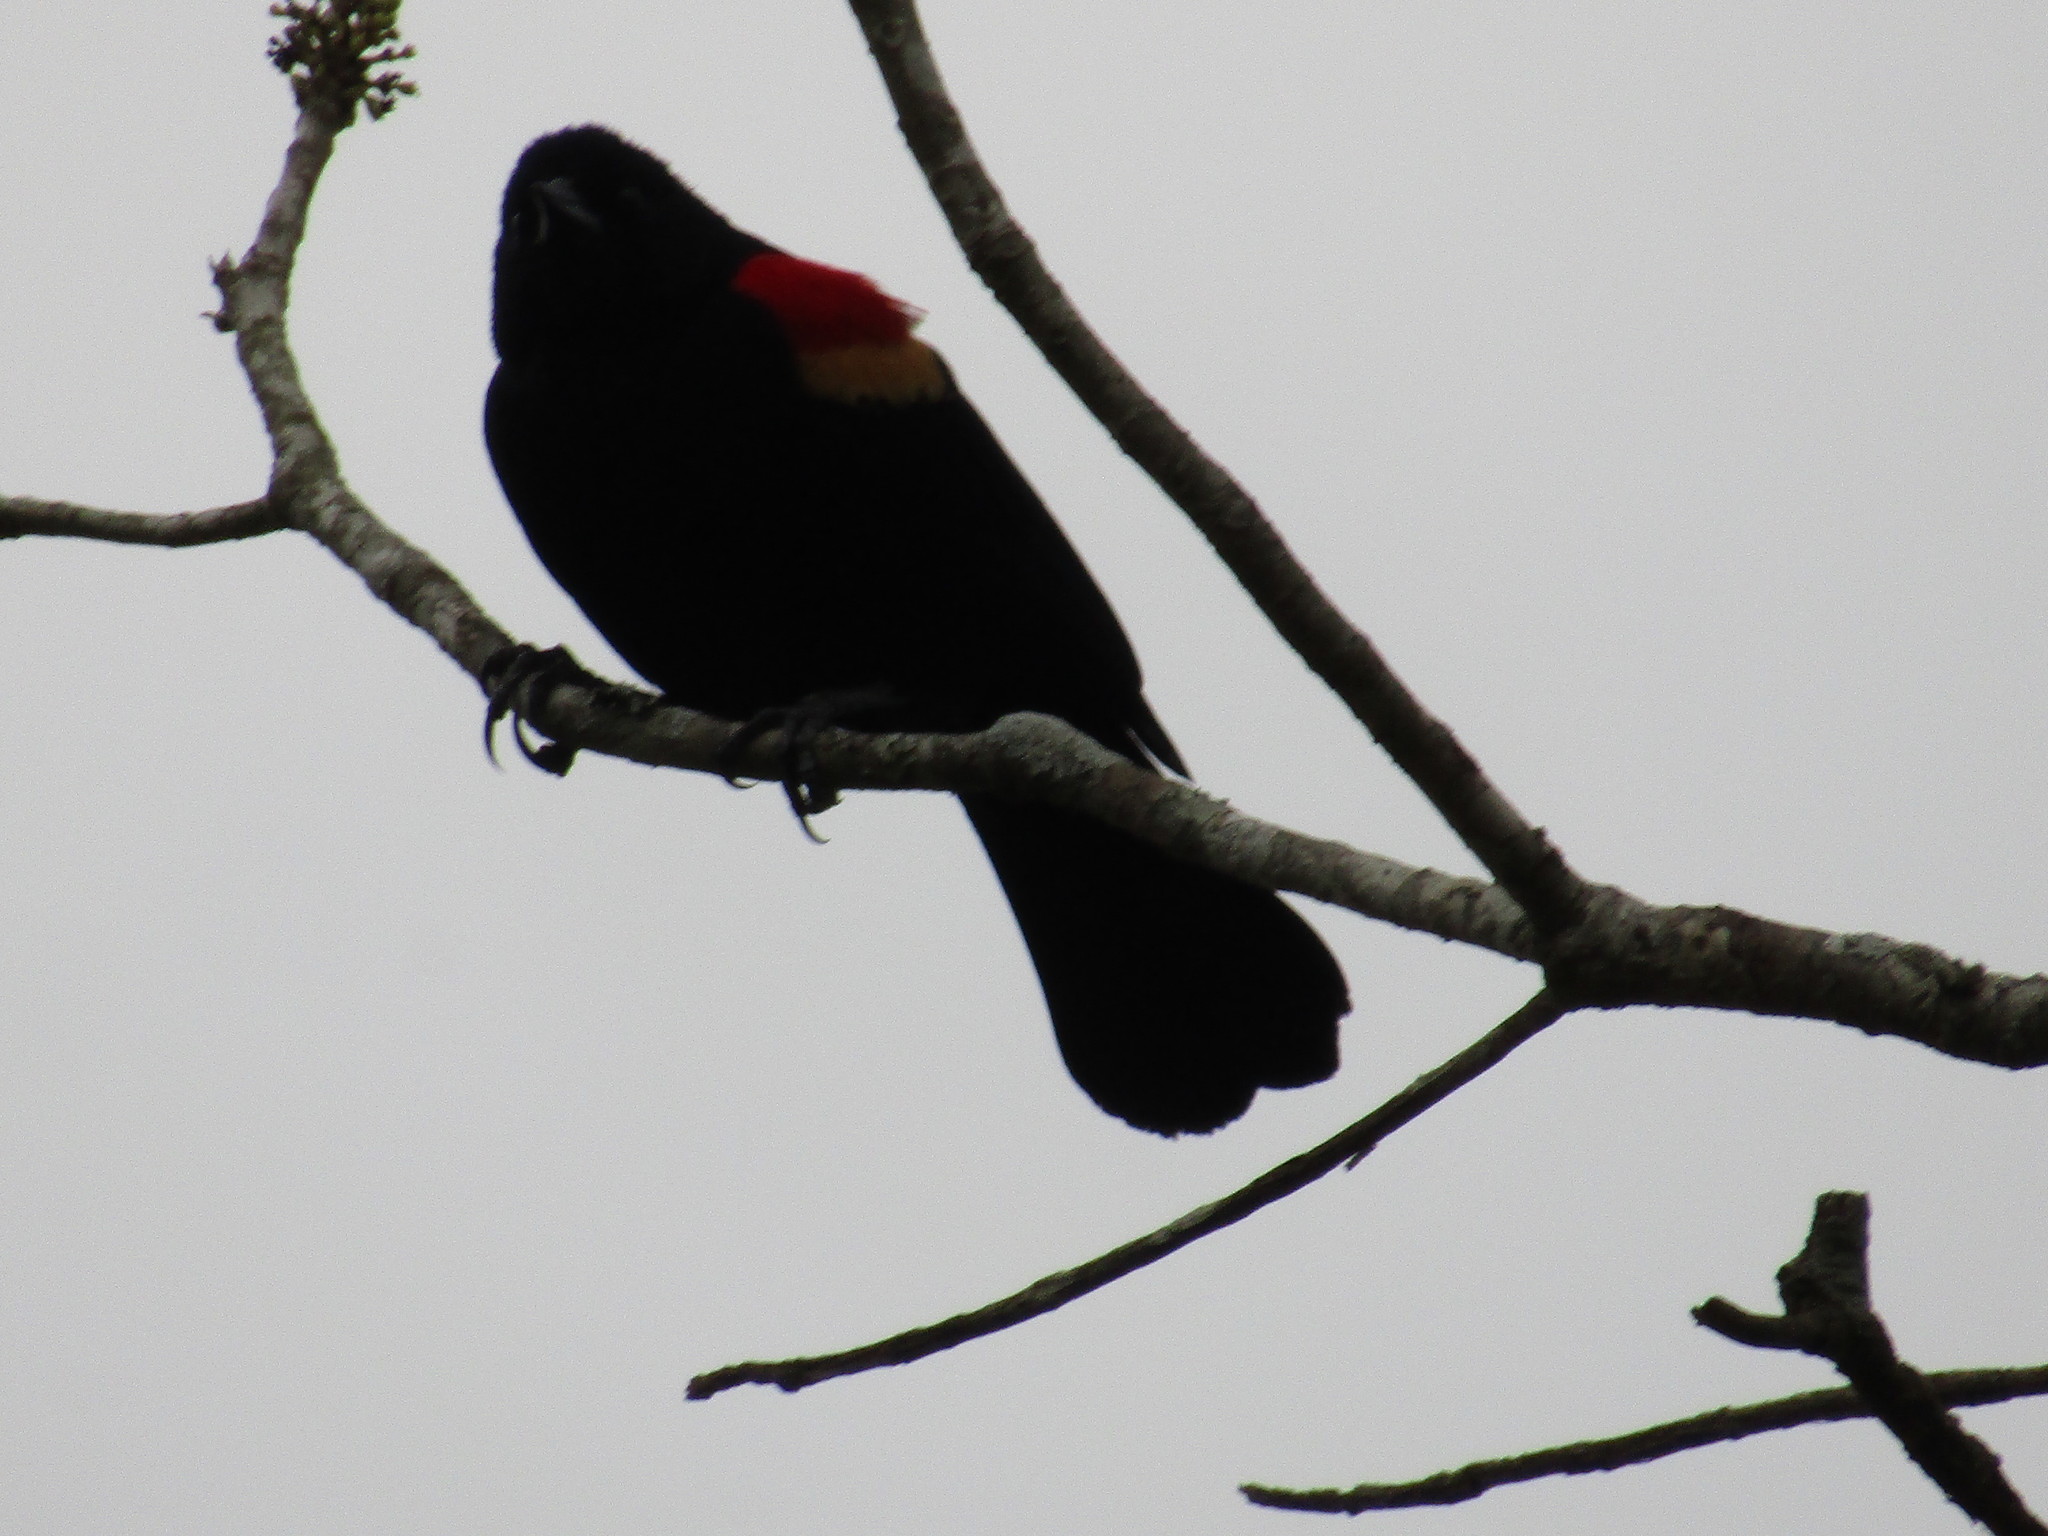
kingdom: Animalia
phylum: Chordata
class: Aves
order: Passeriformes
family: Icteridae
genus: Agelaius
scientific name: Agelaius phoeniceus
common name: Red-winged blackbird
